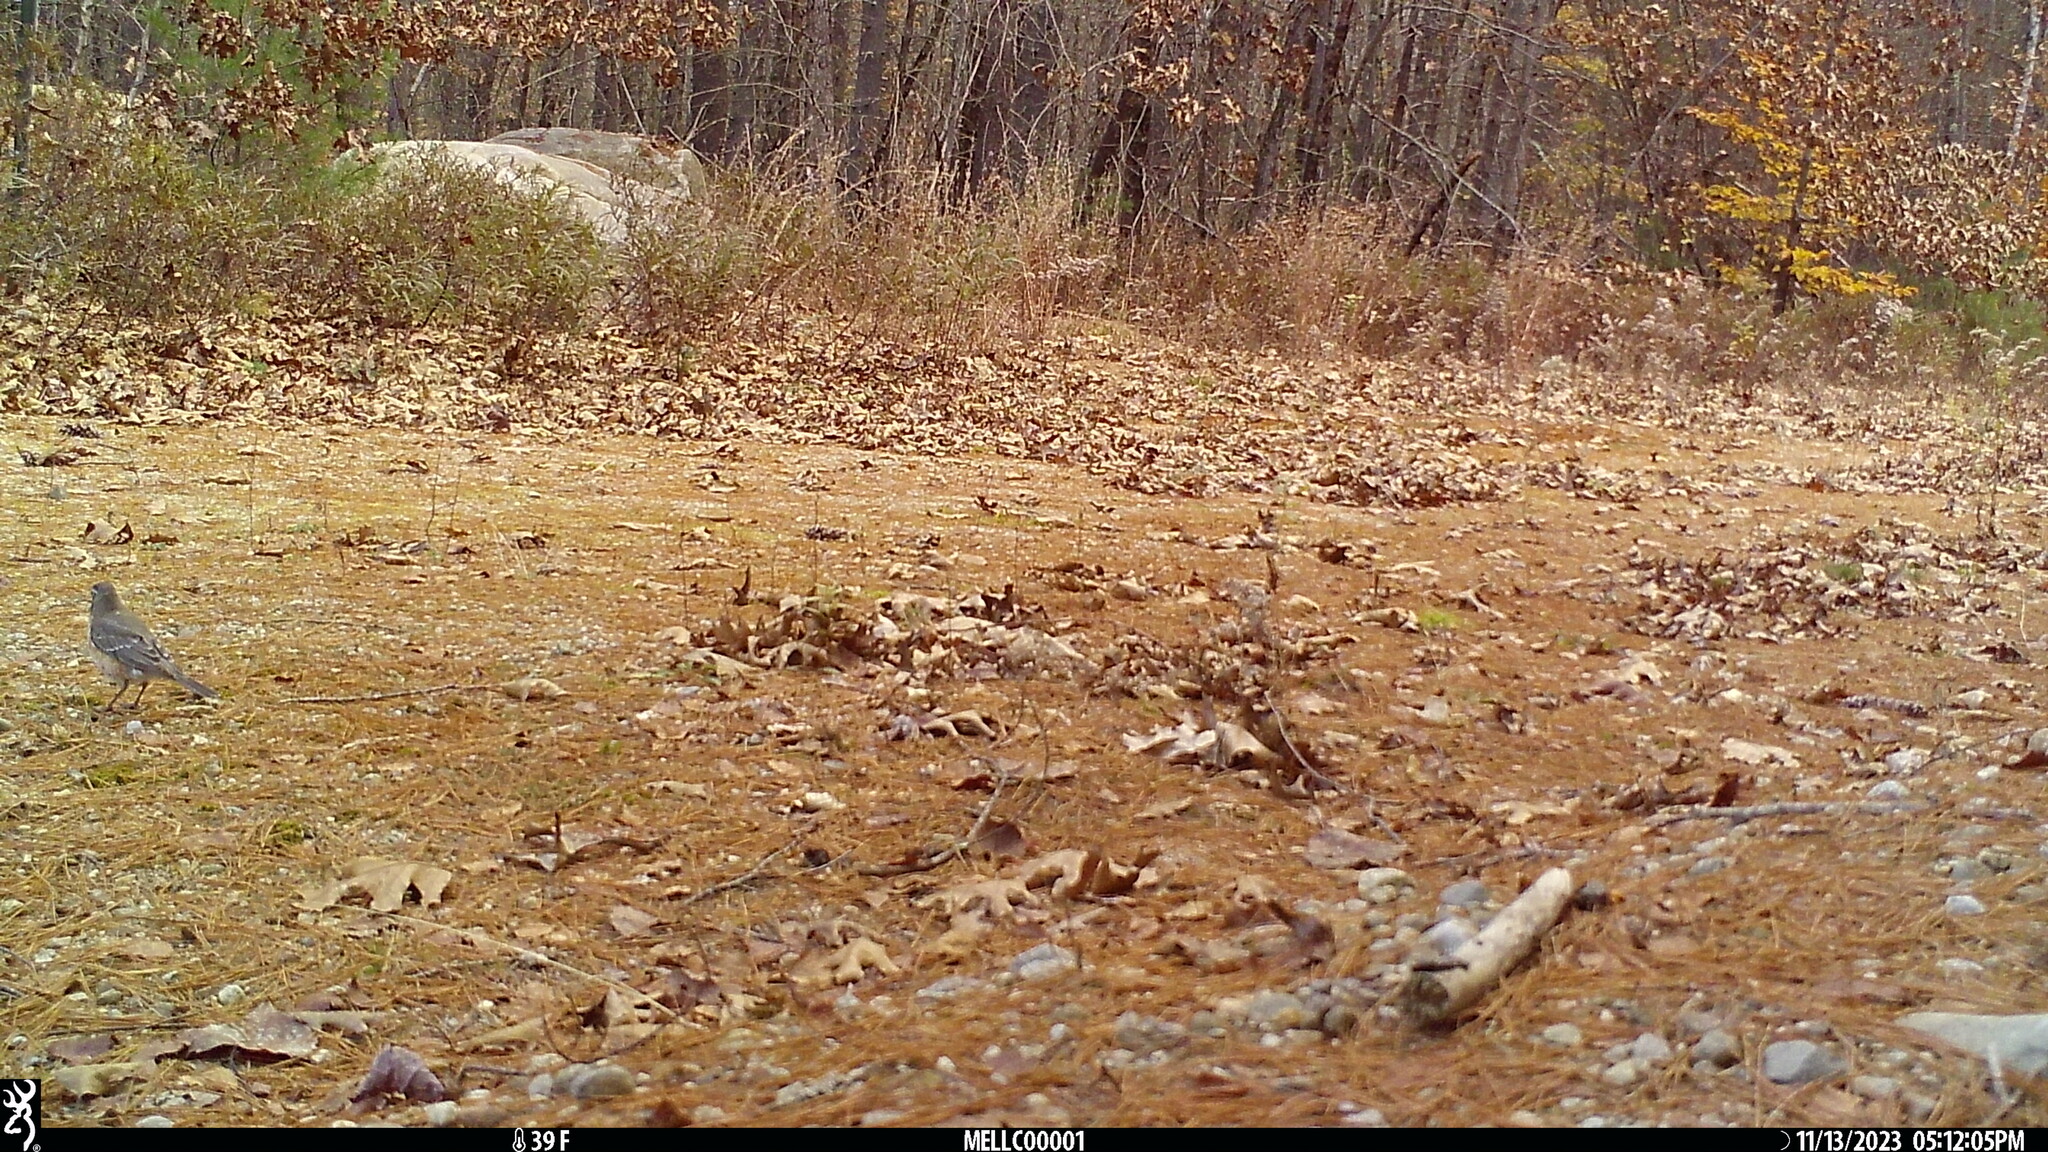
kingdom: Animalia
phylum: Chordata
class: Aves
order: Passeriformes
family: Turdidae
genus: Turdus
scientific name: Turdus migratorius
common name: American robin
